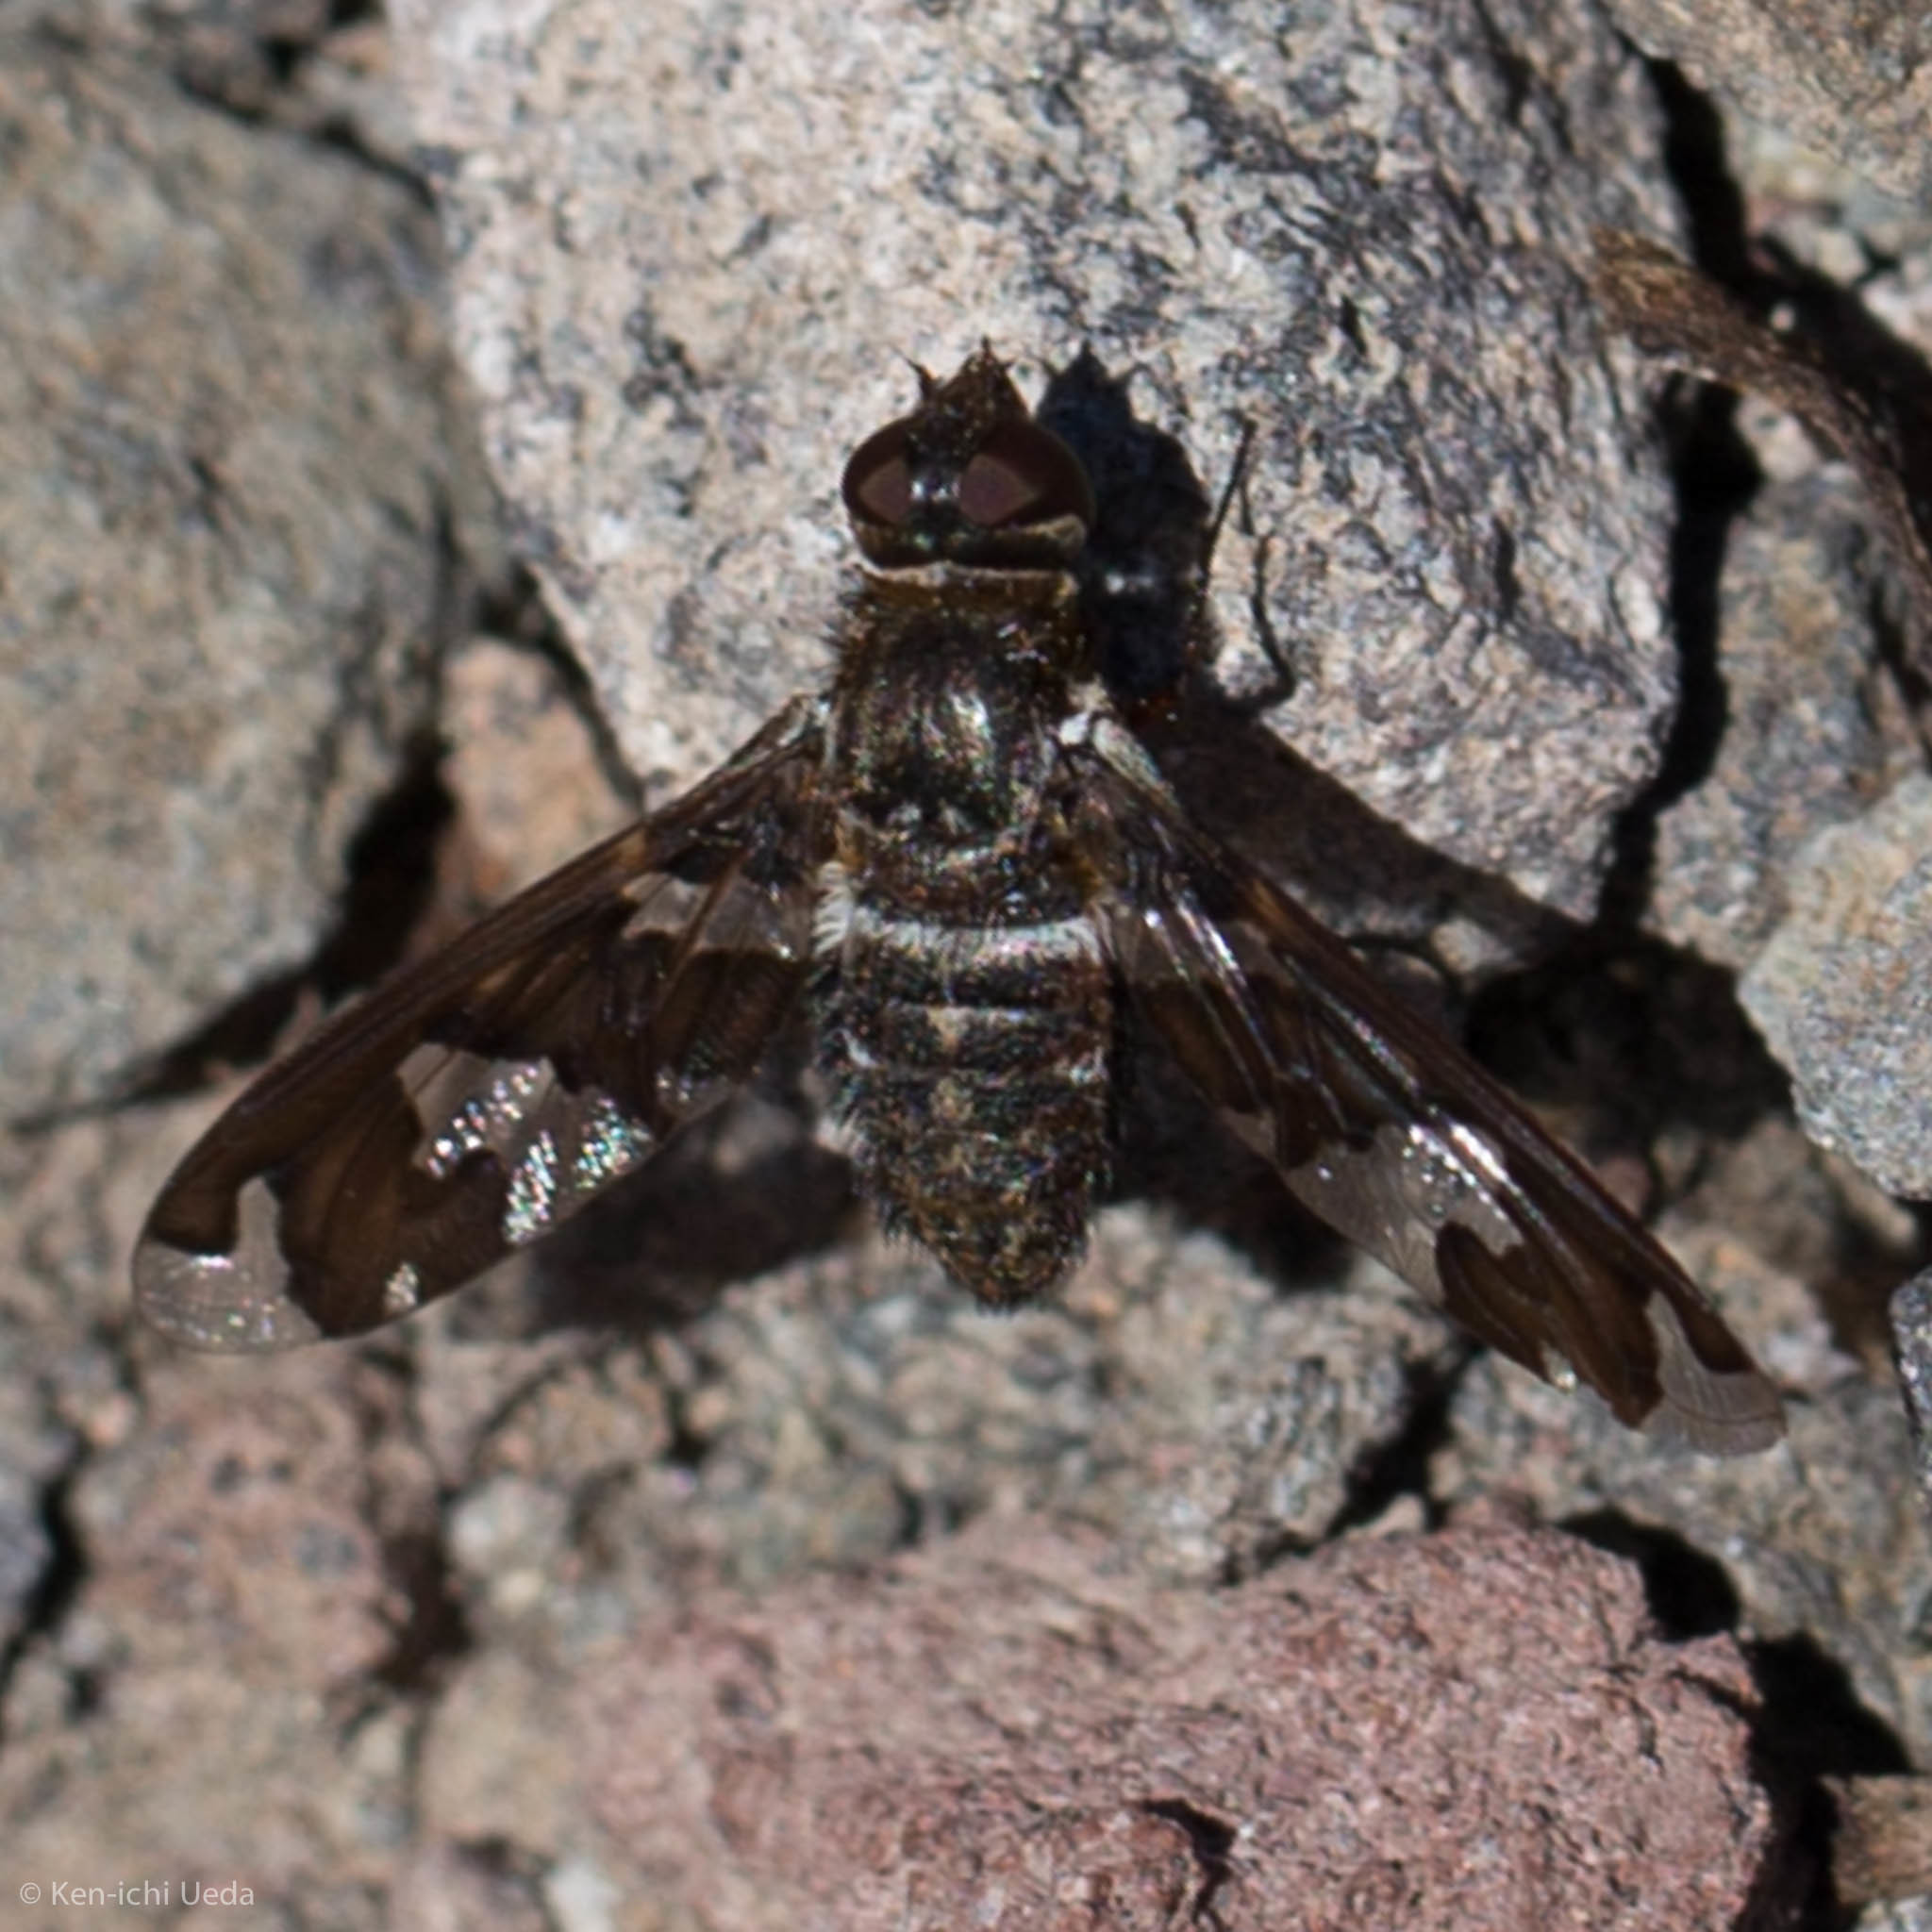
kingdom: Animalia
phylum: Arthropoda
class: Insecta
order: Diptera
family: Bombyliidae
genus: Exoprosopa
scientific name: Exoprosopa dorcadion
